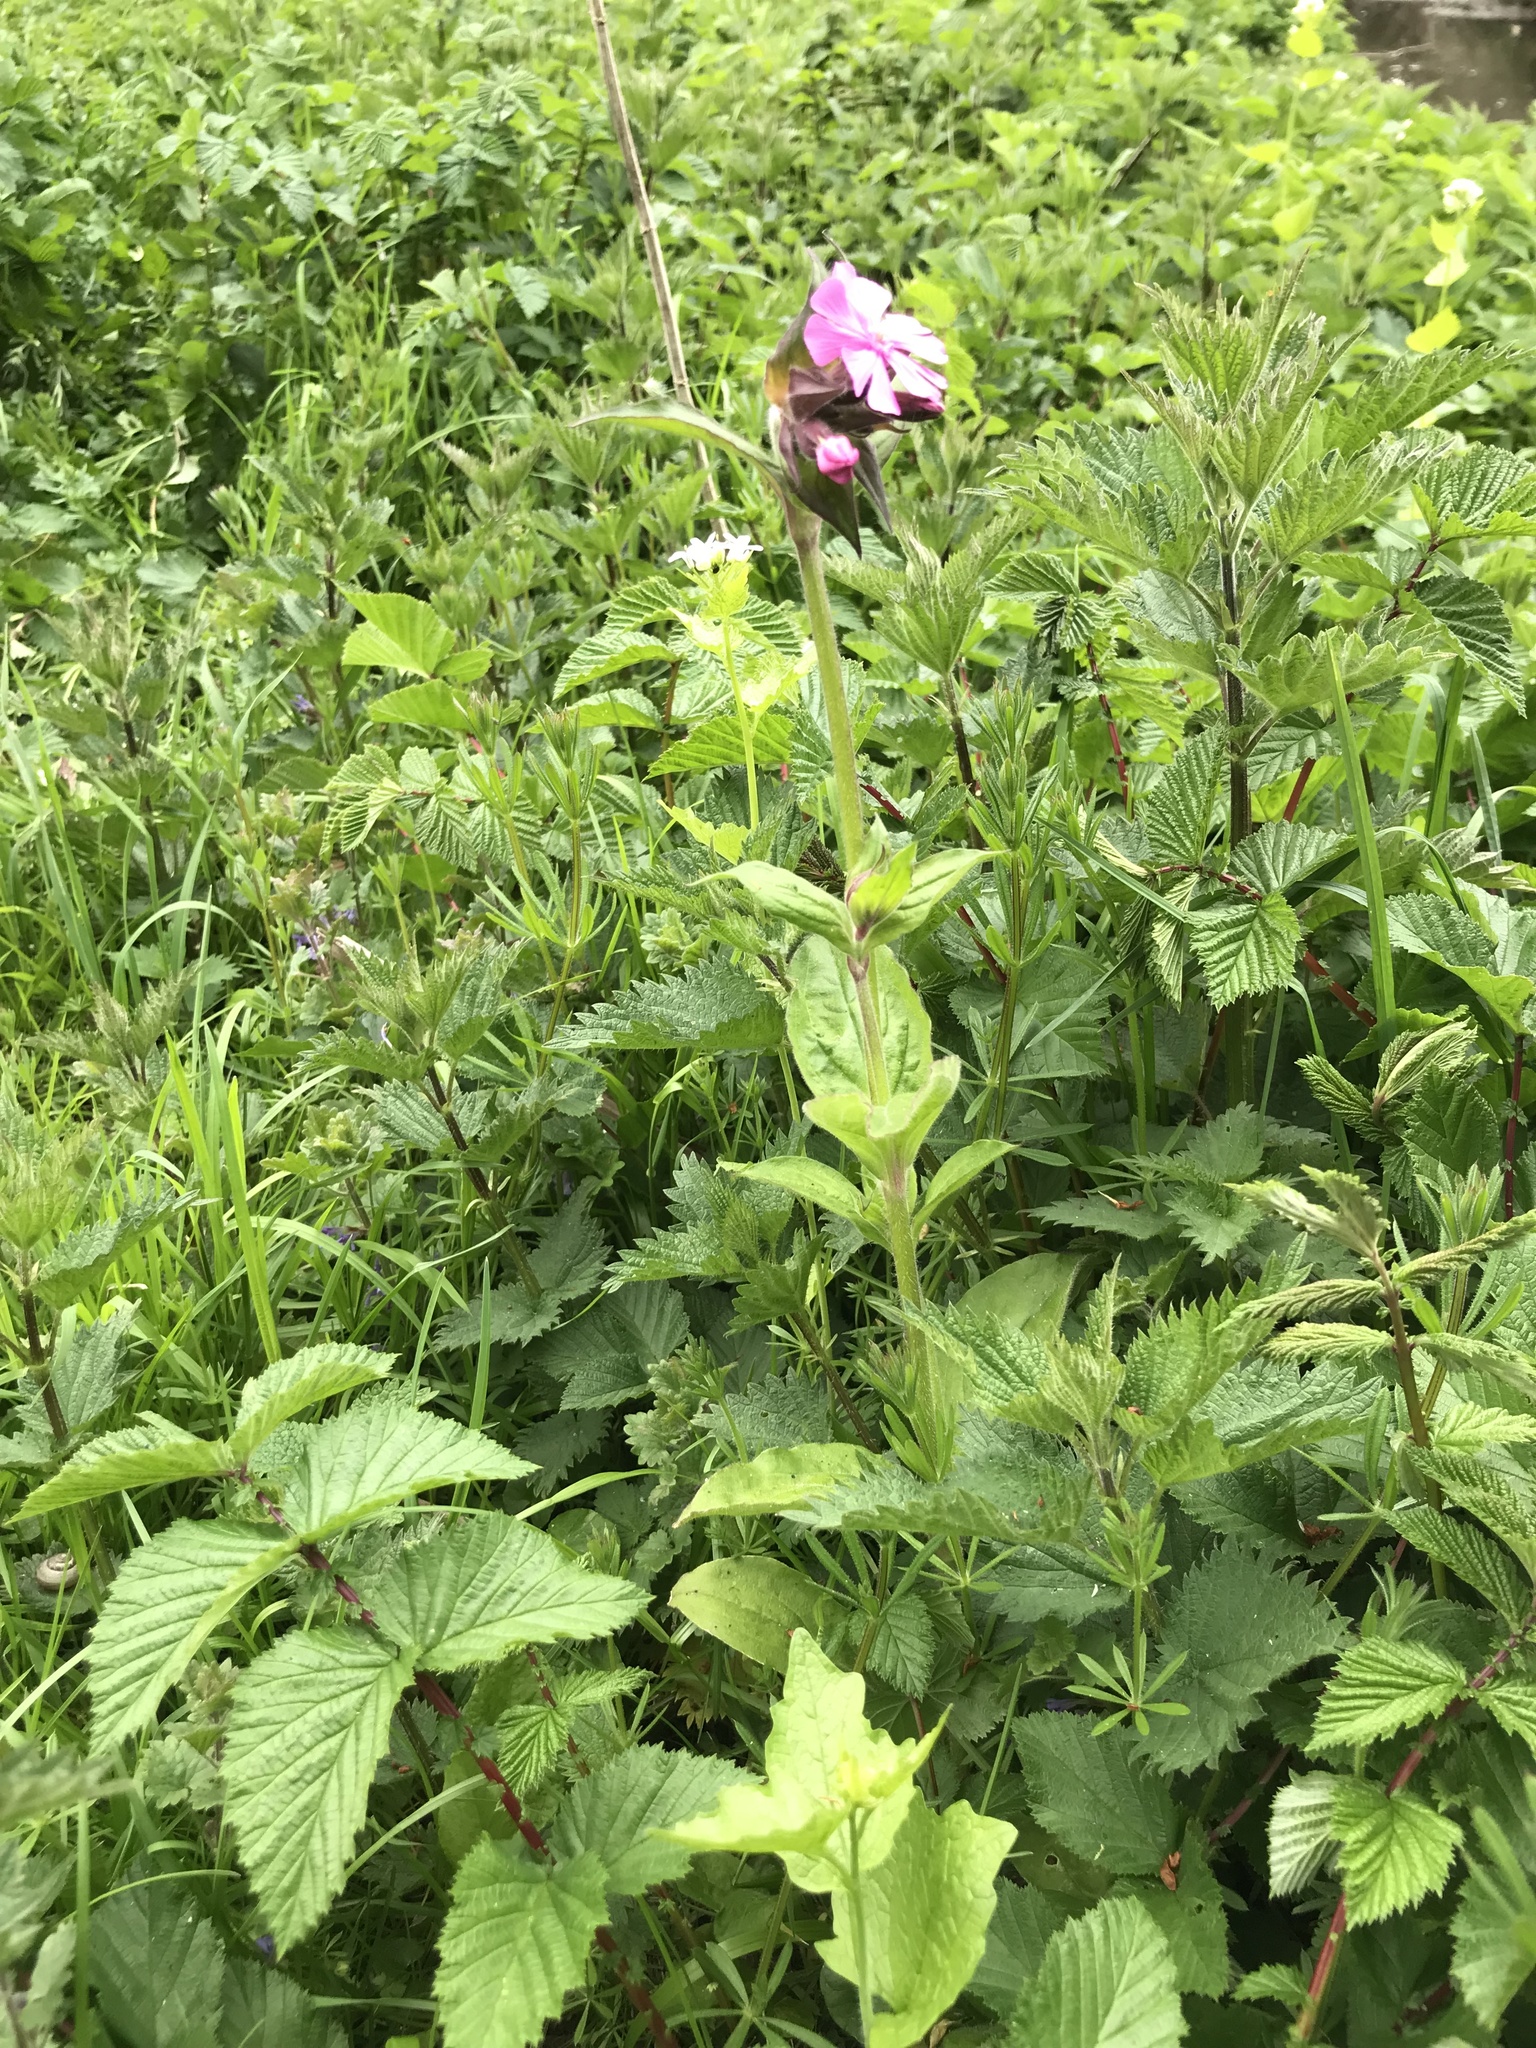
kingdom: Plantae
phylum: Tracheophyta
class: Magnoliopsida
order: Caryophyllales
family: Caryophyllaceae
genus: Silene
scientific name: Silene dioica
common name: Red campion
